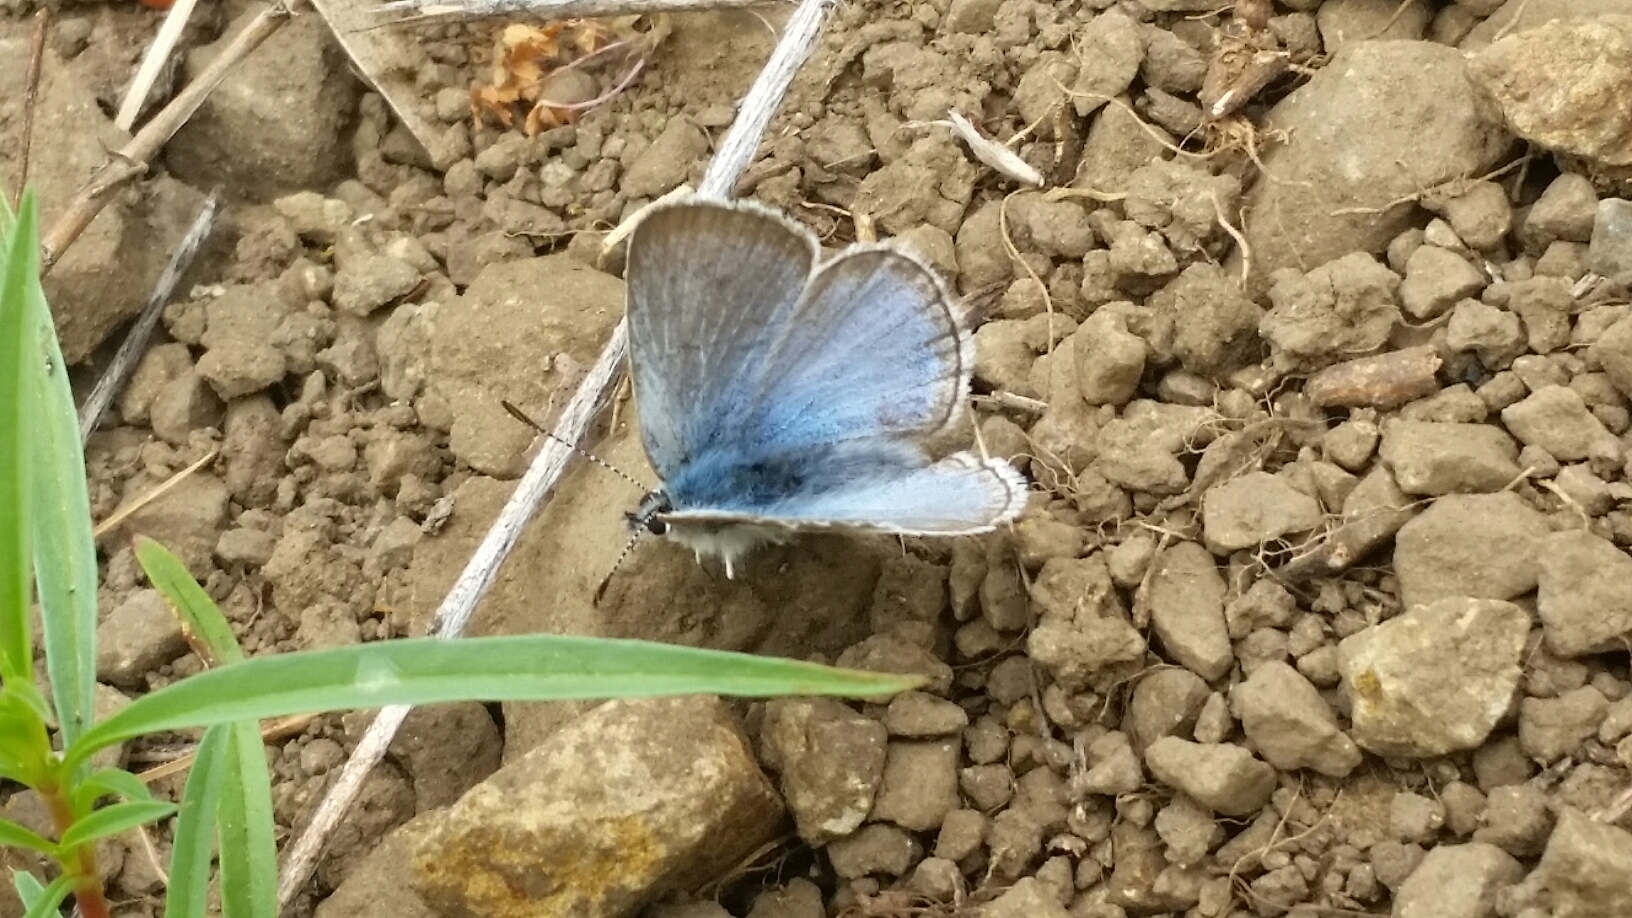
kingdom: Animalia
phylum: Arthropoda
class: Insecta
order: Lepidoptera
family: Lycaenidae
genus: Icaricia
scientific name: Icaricia icarioides
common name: Boisduval's blue
